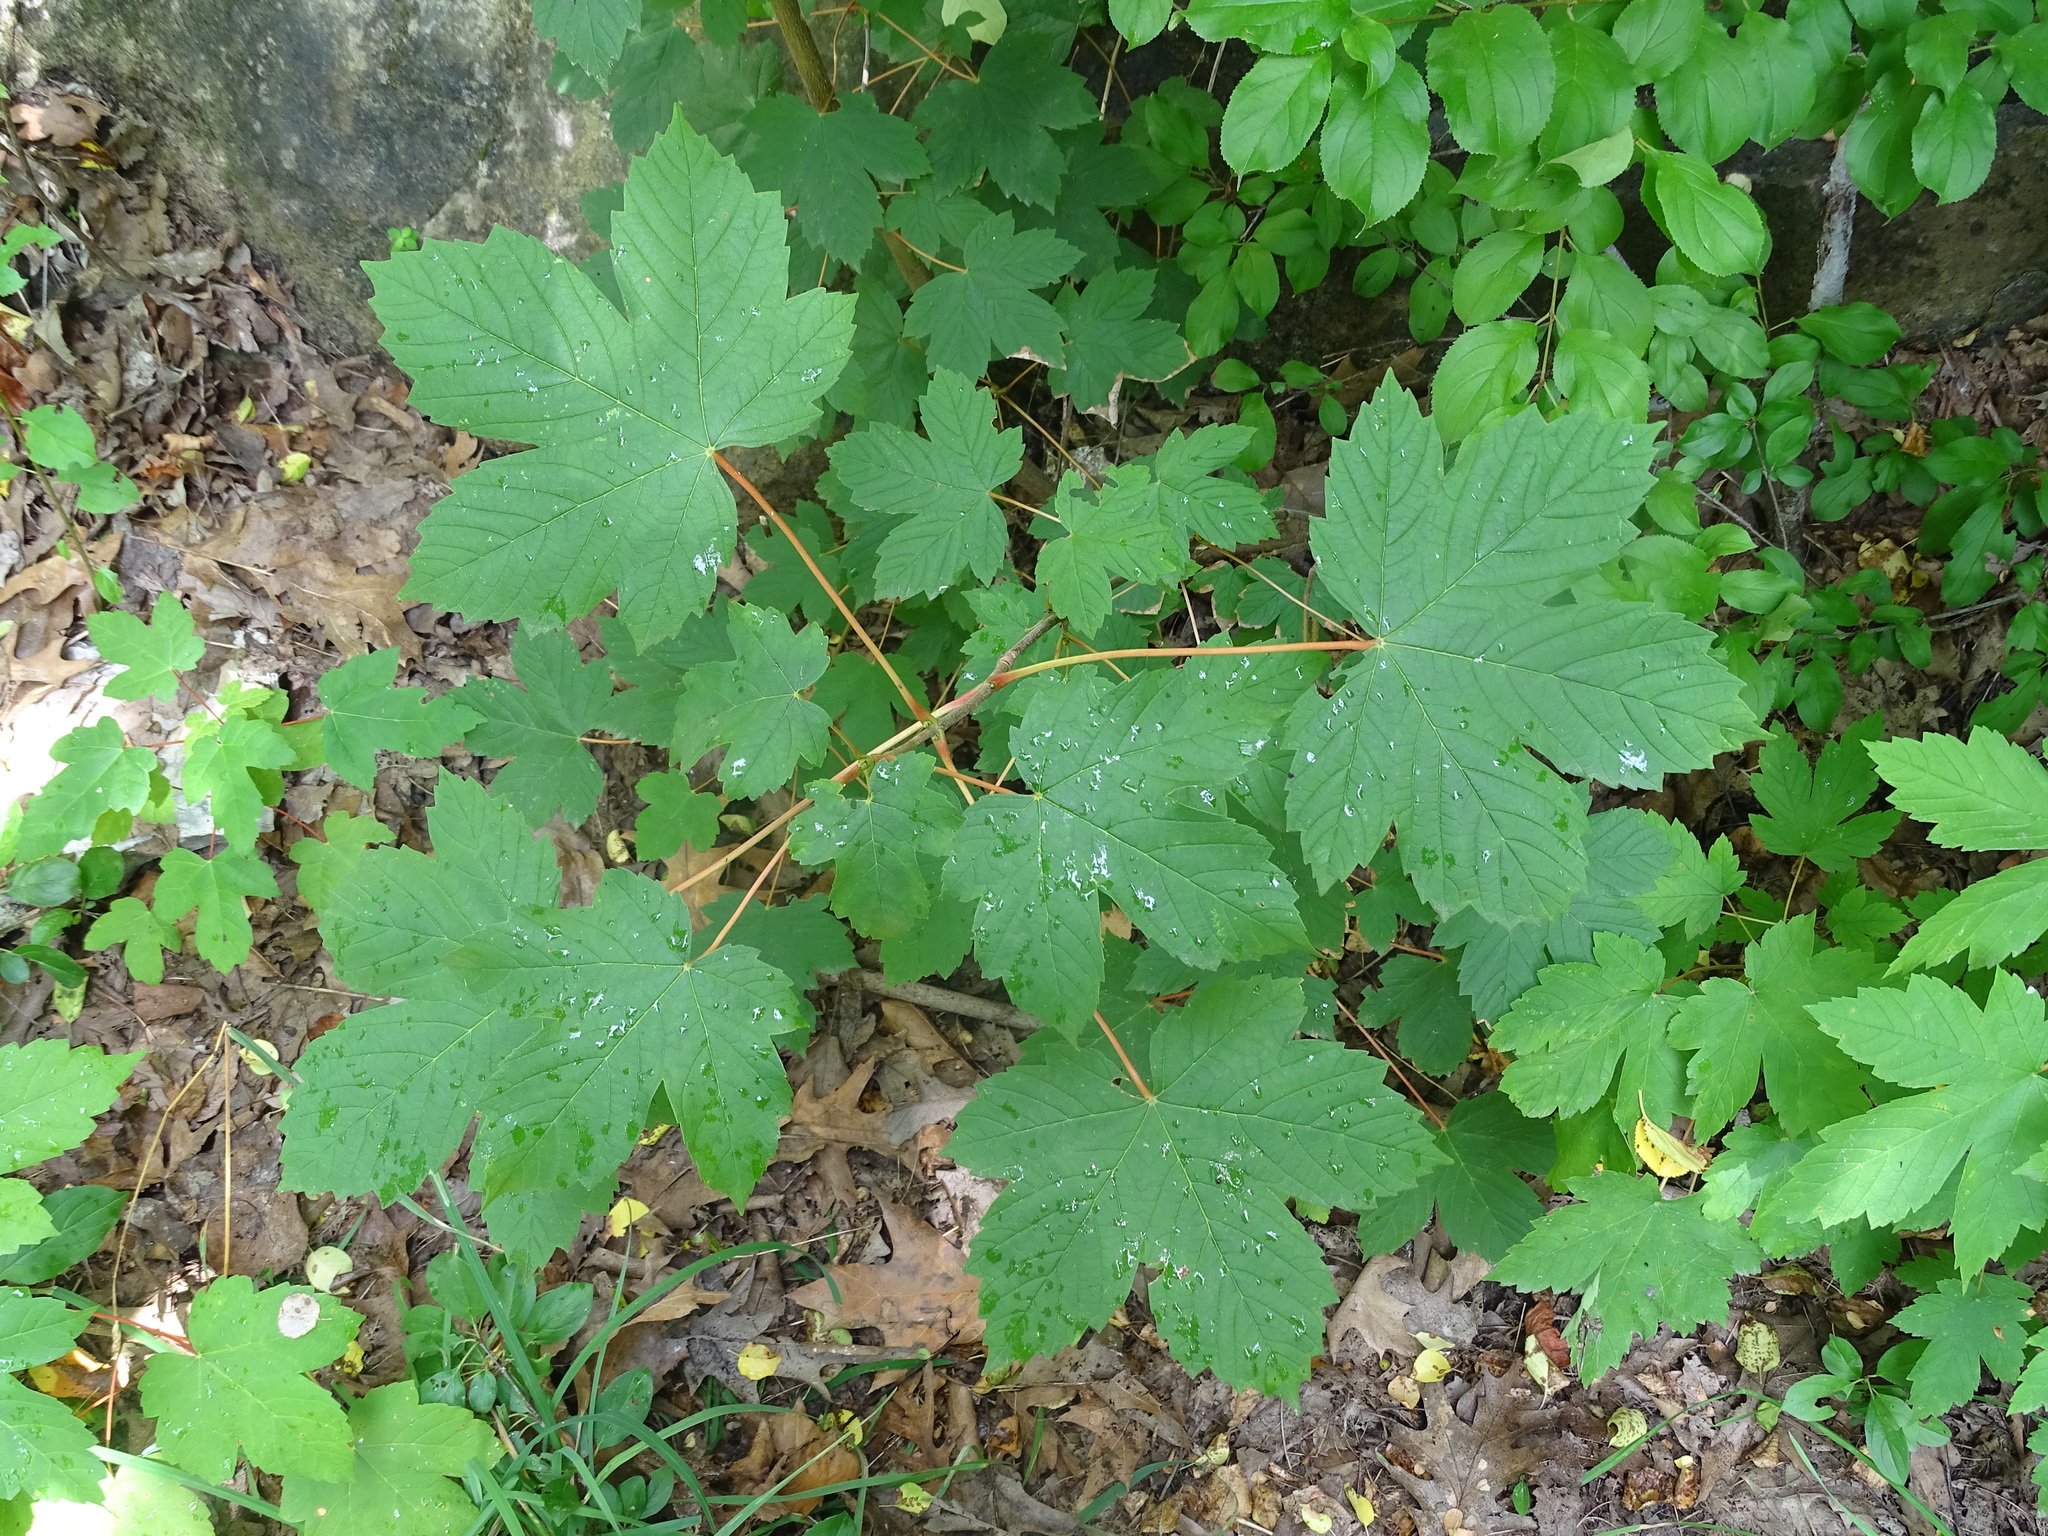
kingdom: Plantae
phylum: Tracheophyta
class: Magnoliopsida
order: Sapindales
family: Sapindaceae
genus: Acer
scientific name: Acer pseudoplatanus
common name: Sycamore
